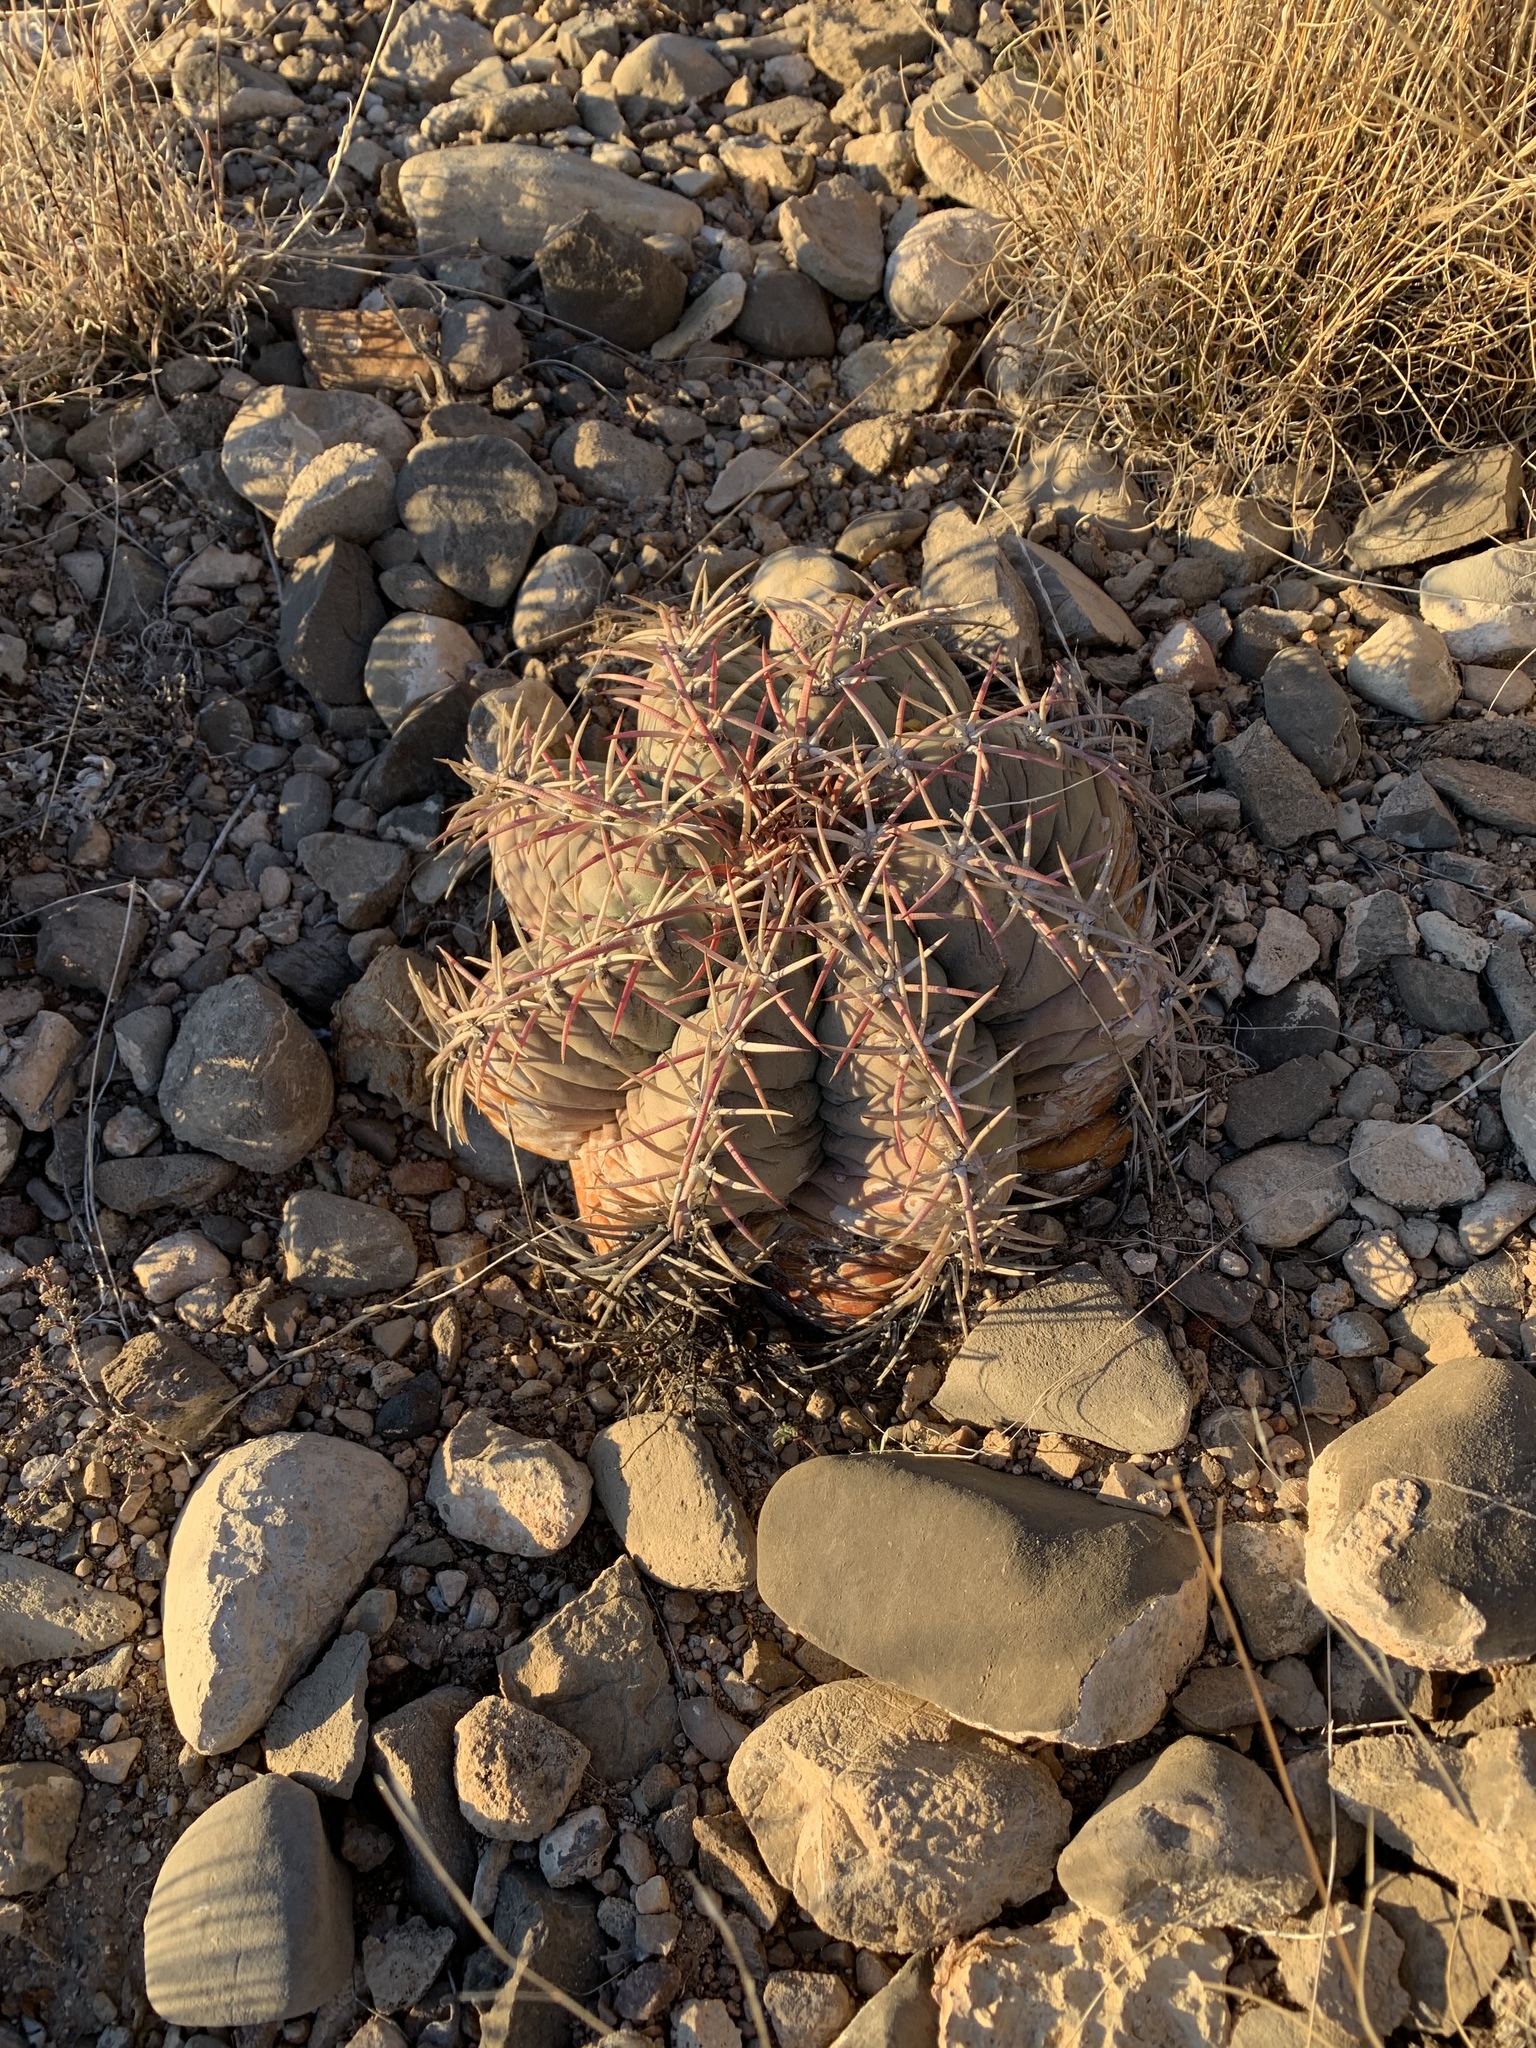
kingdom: Plantae
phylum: Tracheophyta
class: Magnoliopsida
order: Caryophyllales
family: Cactaceae
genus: Echinocactus
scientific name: Echinocactus horizonthalonius
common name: Devilshead
